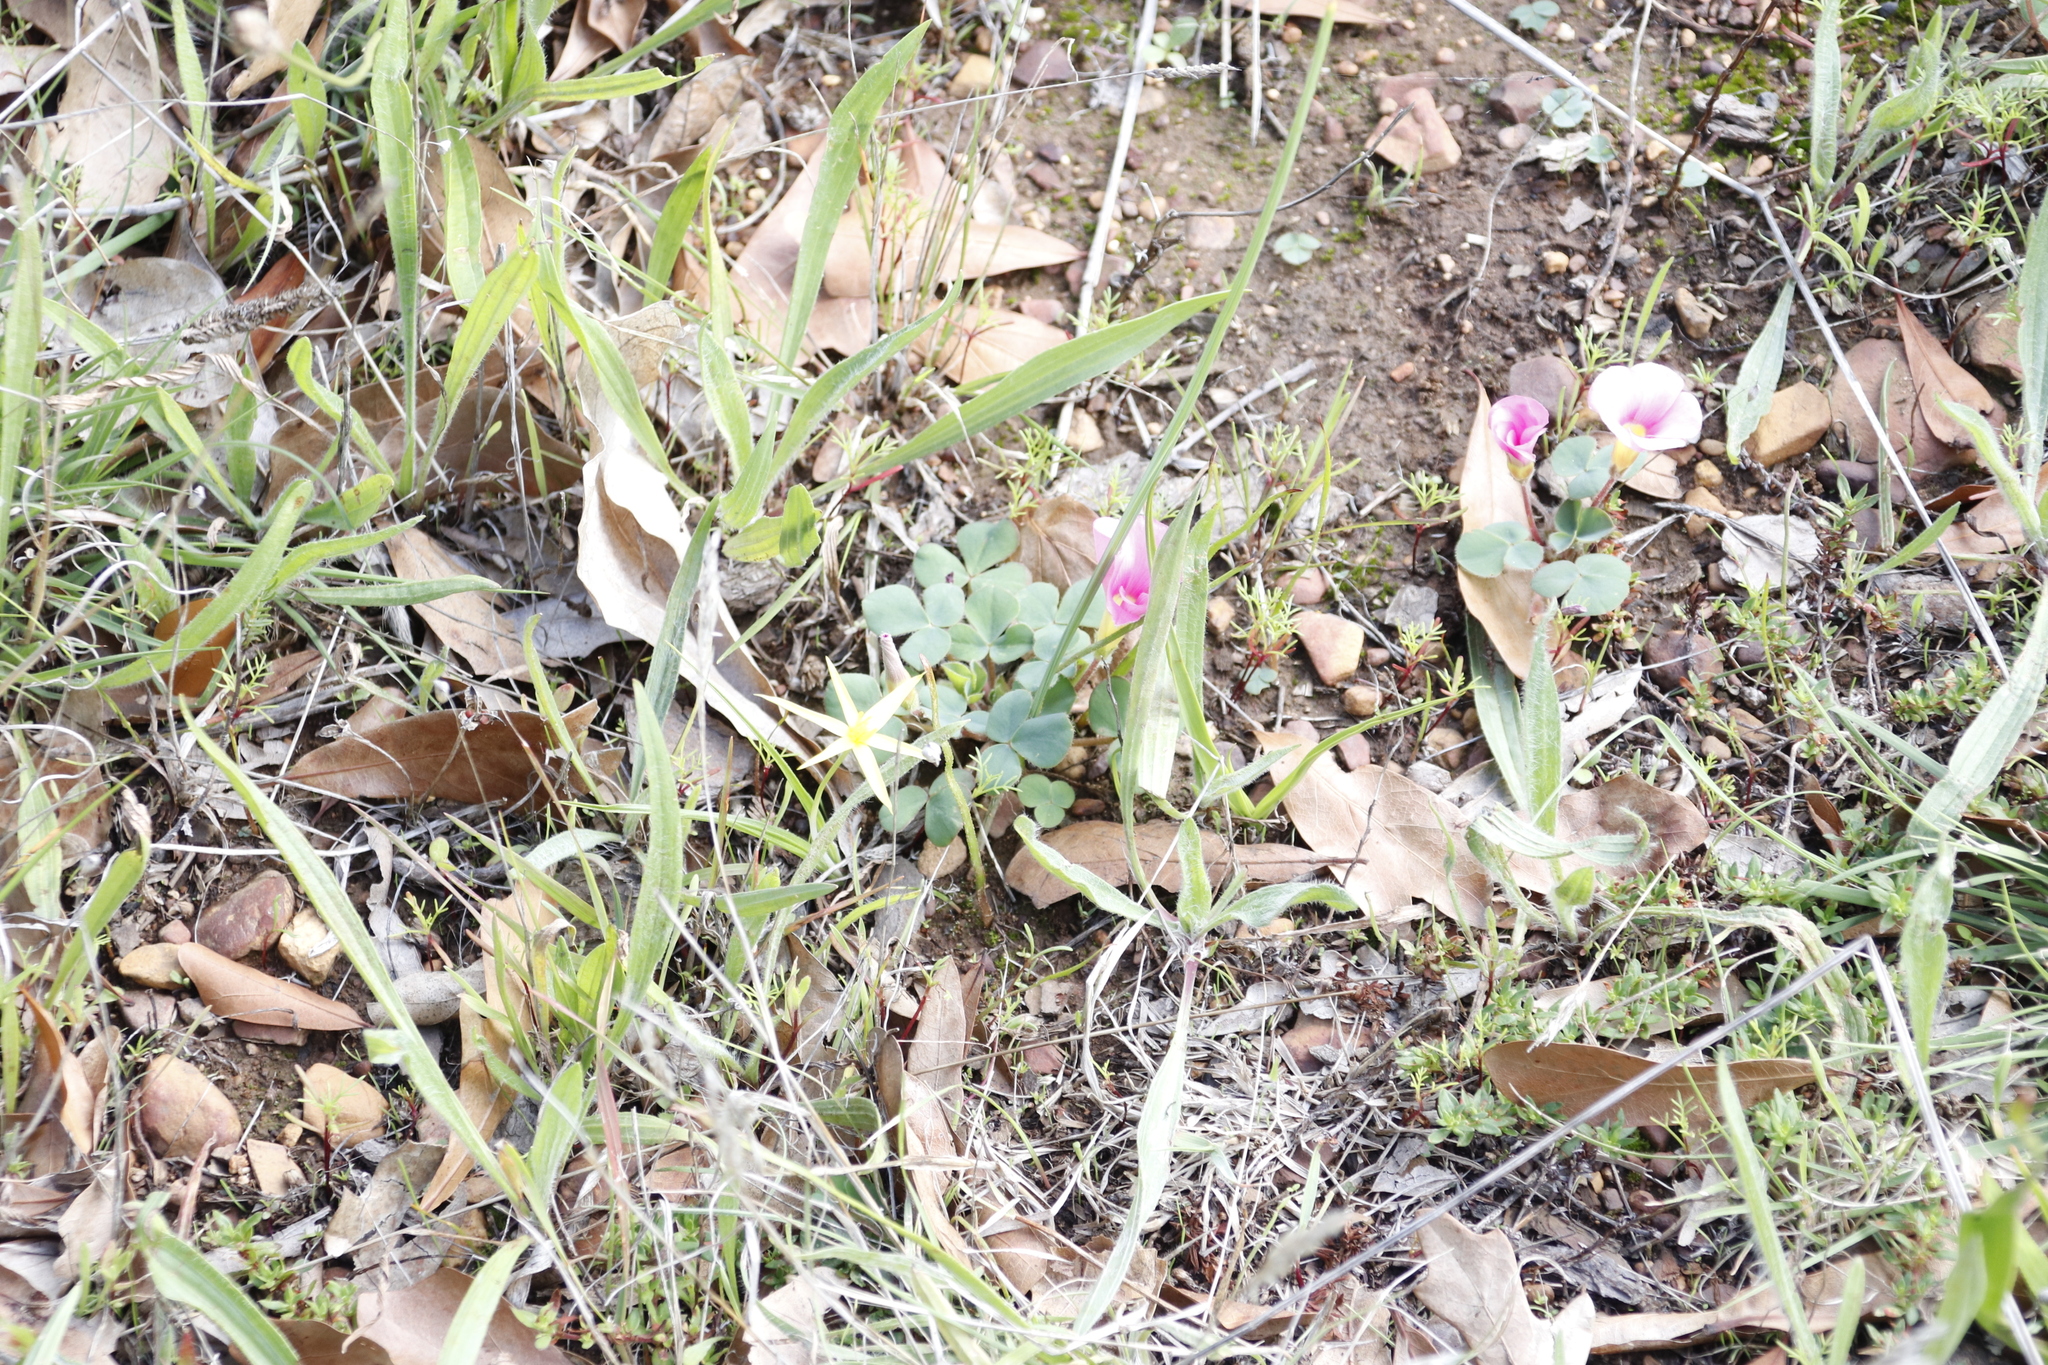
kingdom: Plantae
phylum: Tracheophyta
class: Magnoliopsida
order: Oxalidales
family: Oxalidaceae
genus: Oxalis
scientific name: Oxalis purpurea
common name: Purple woodsorrel
